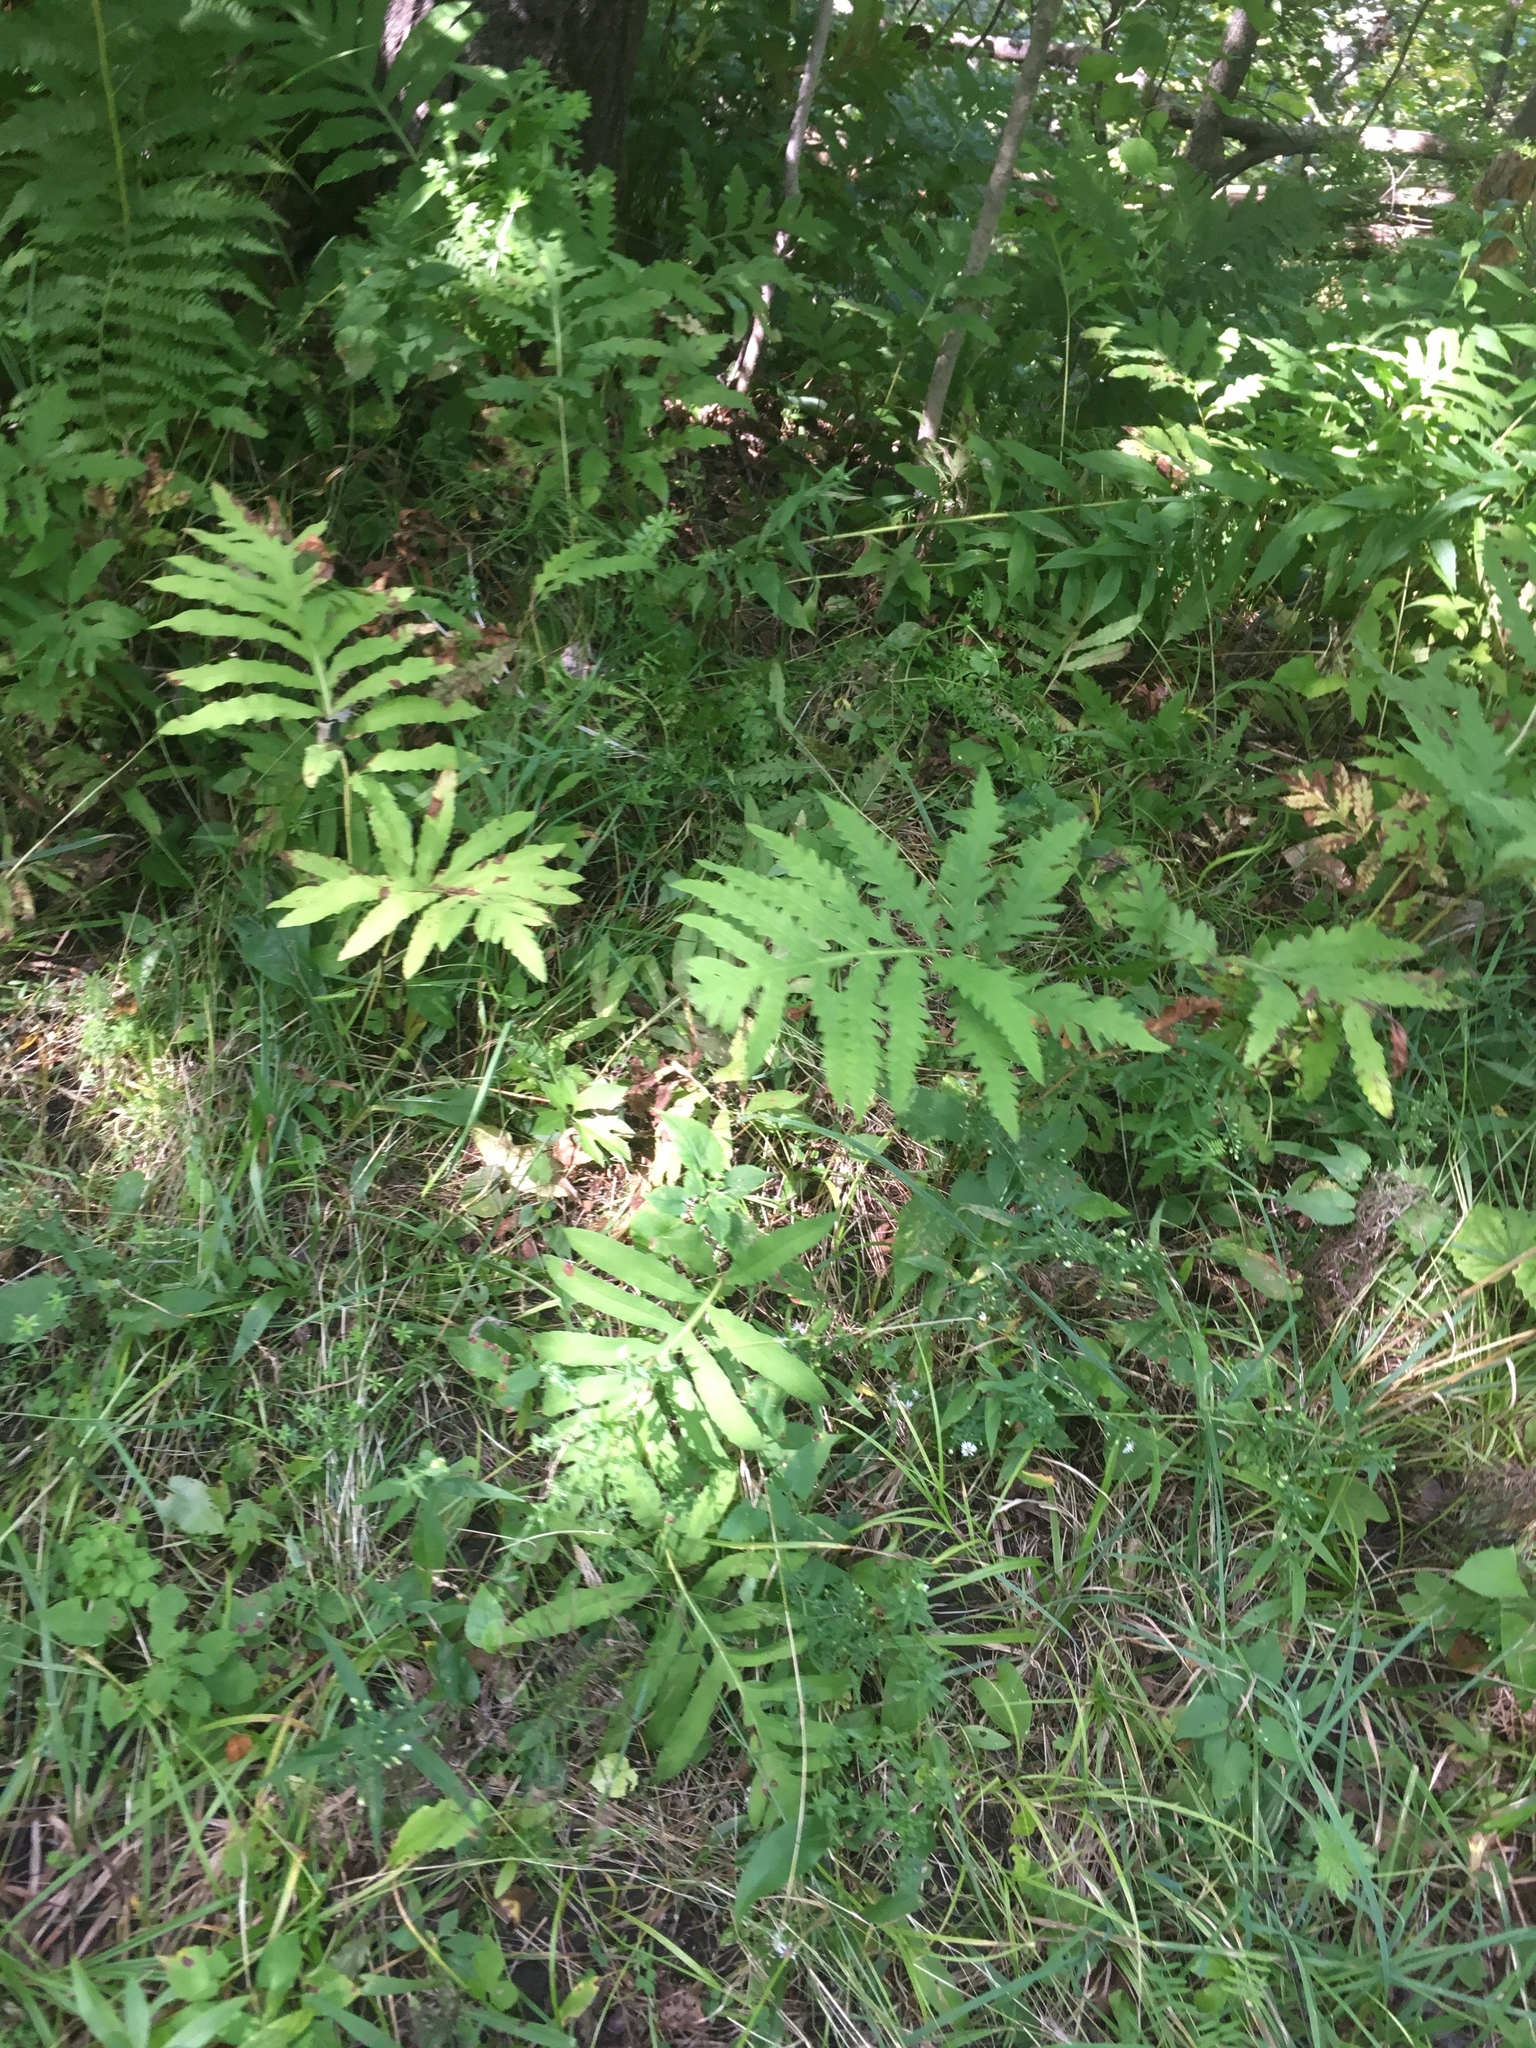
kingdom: Plantae
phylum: Tracheophyta
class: Polypodiopsida
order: Polypodiales
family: Onocleaceae
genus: Onoclea
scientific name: Onoclea sensibilis
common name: Sensitive fern
